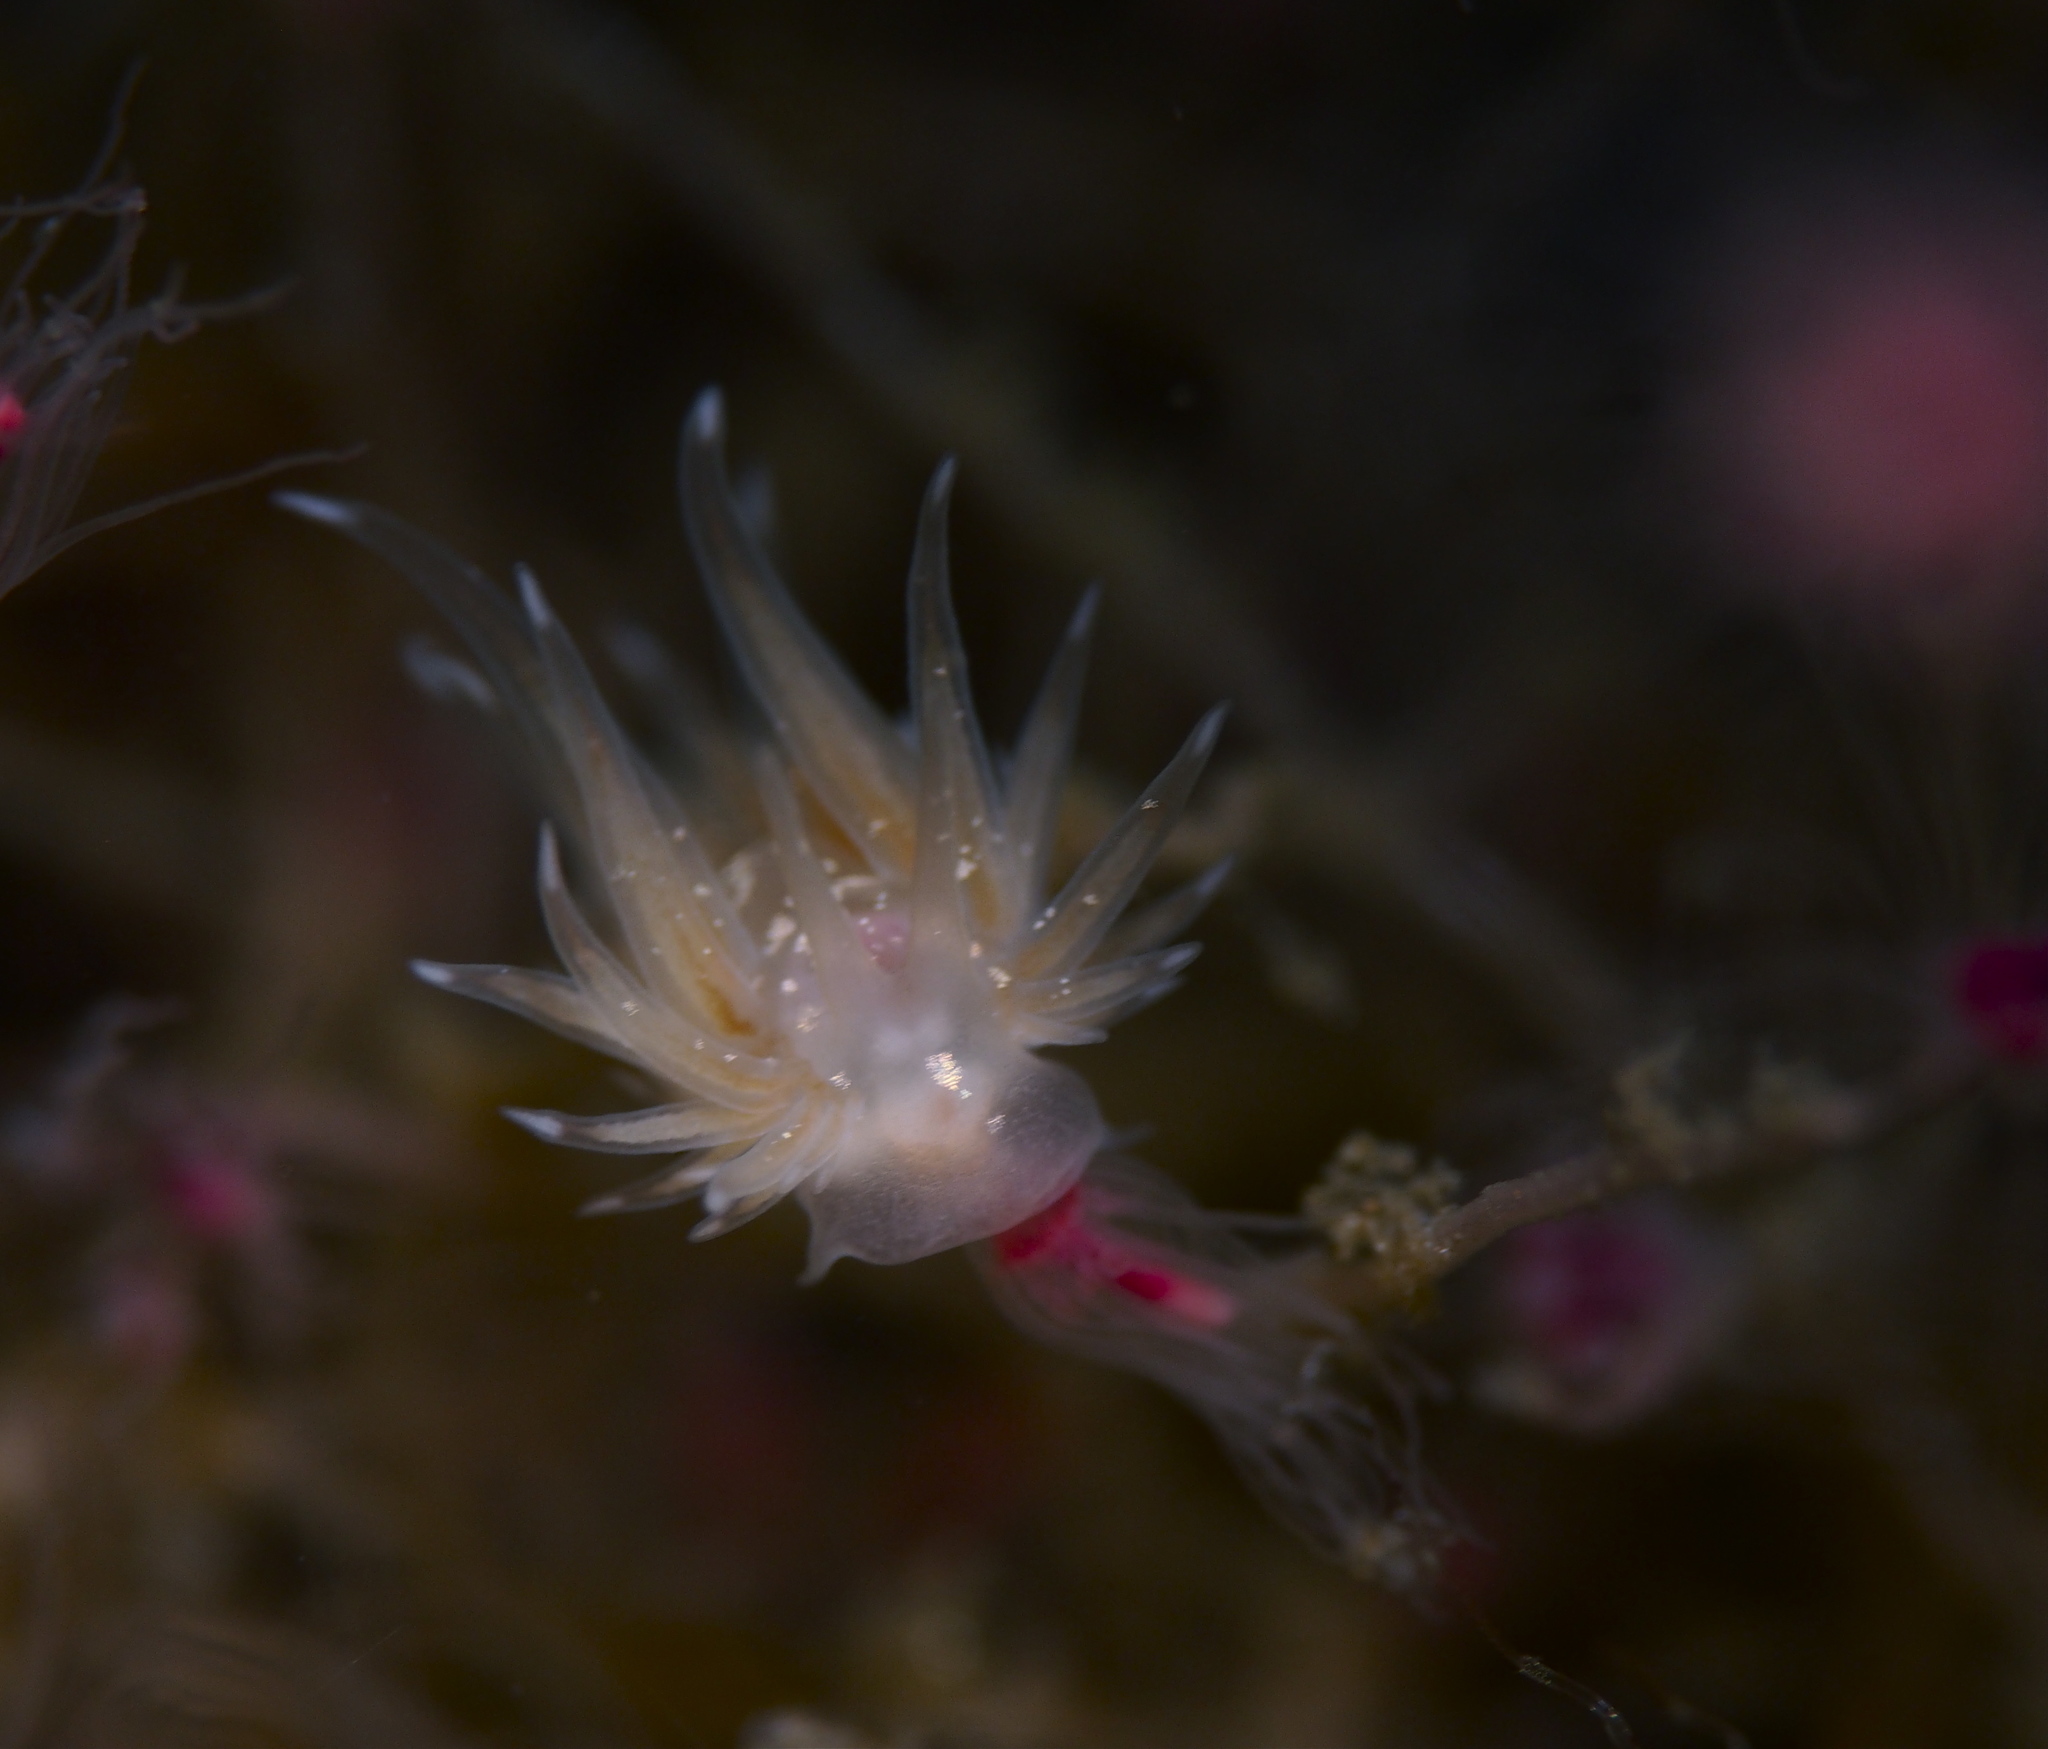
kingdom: Animalia
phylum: Mollusca
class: Gastropoda
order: Nudibranchia
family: Cumanotidae
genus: Cumanotus
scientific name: Cumanotus beaumonti
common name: Polyp aeolis
